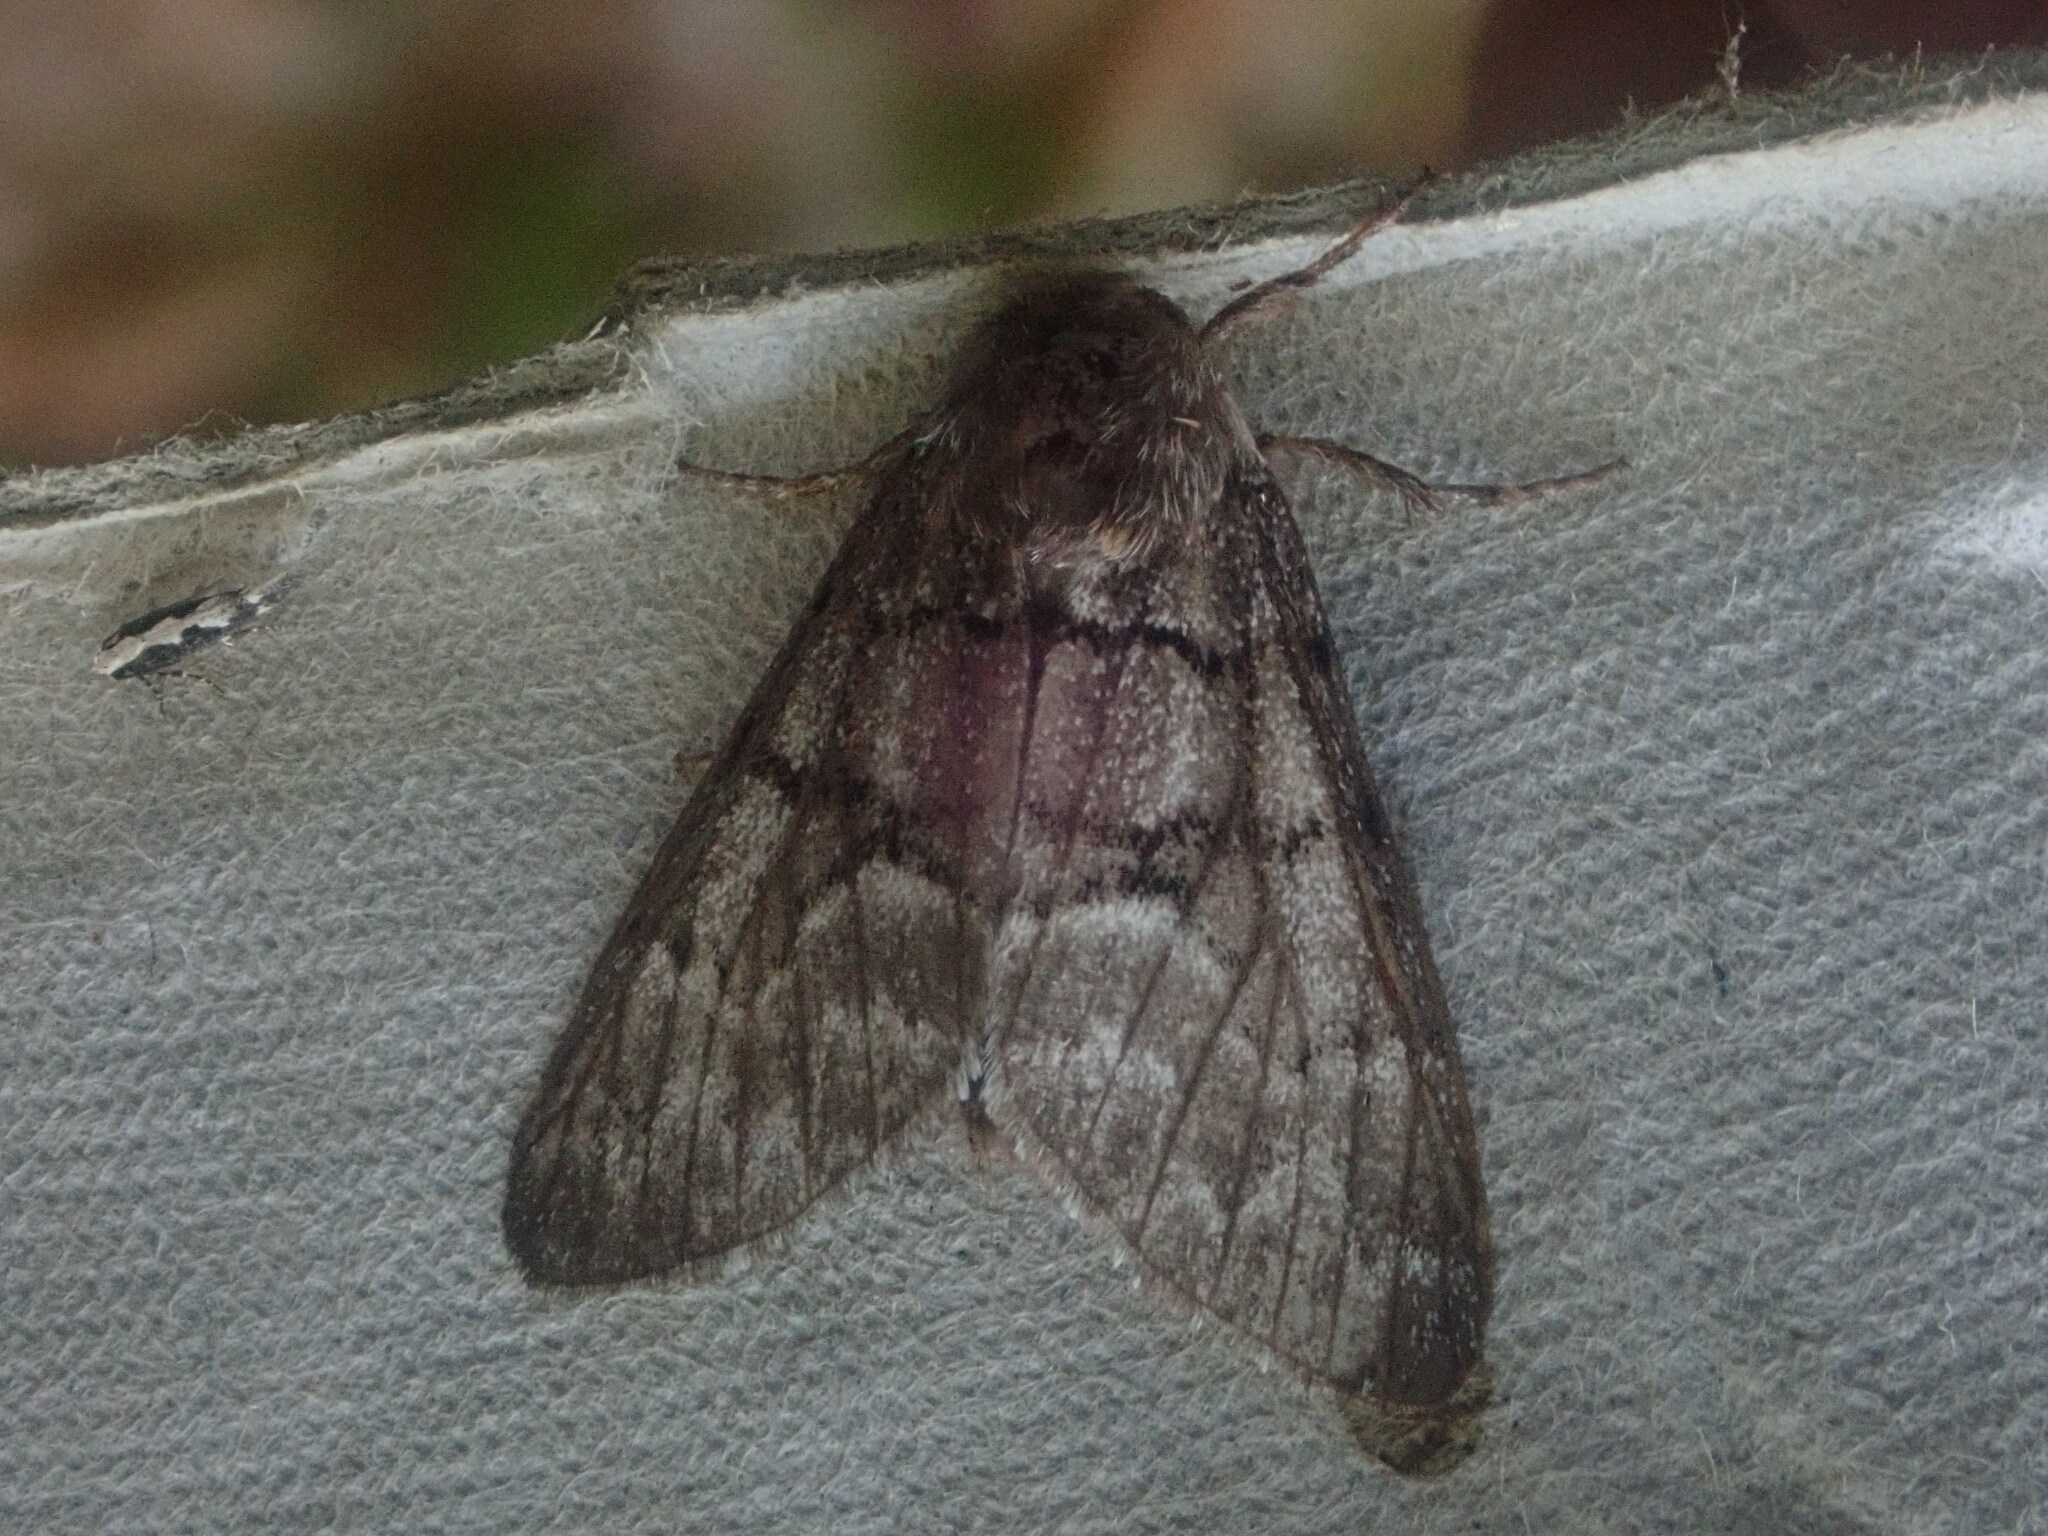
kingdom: Animalia
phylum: Arthropoda
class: Insecta
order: Lepidoptera
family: Noctuidae
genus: Panthea
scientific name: Panthea furcilla
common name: Eastern panthea moth
